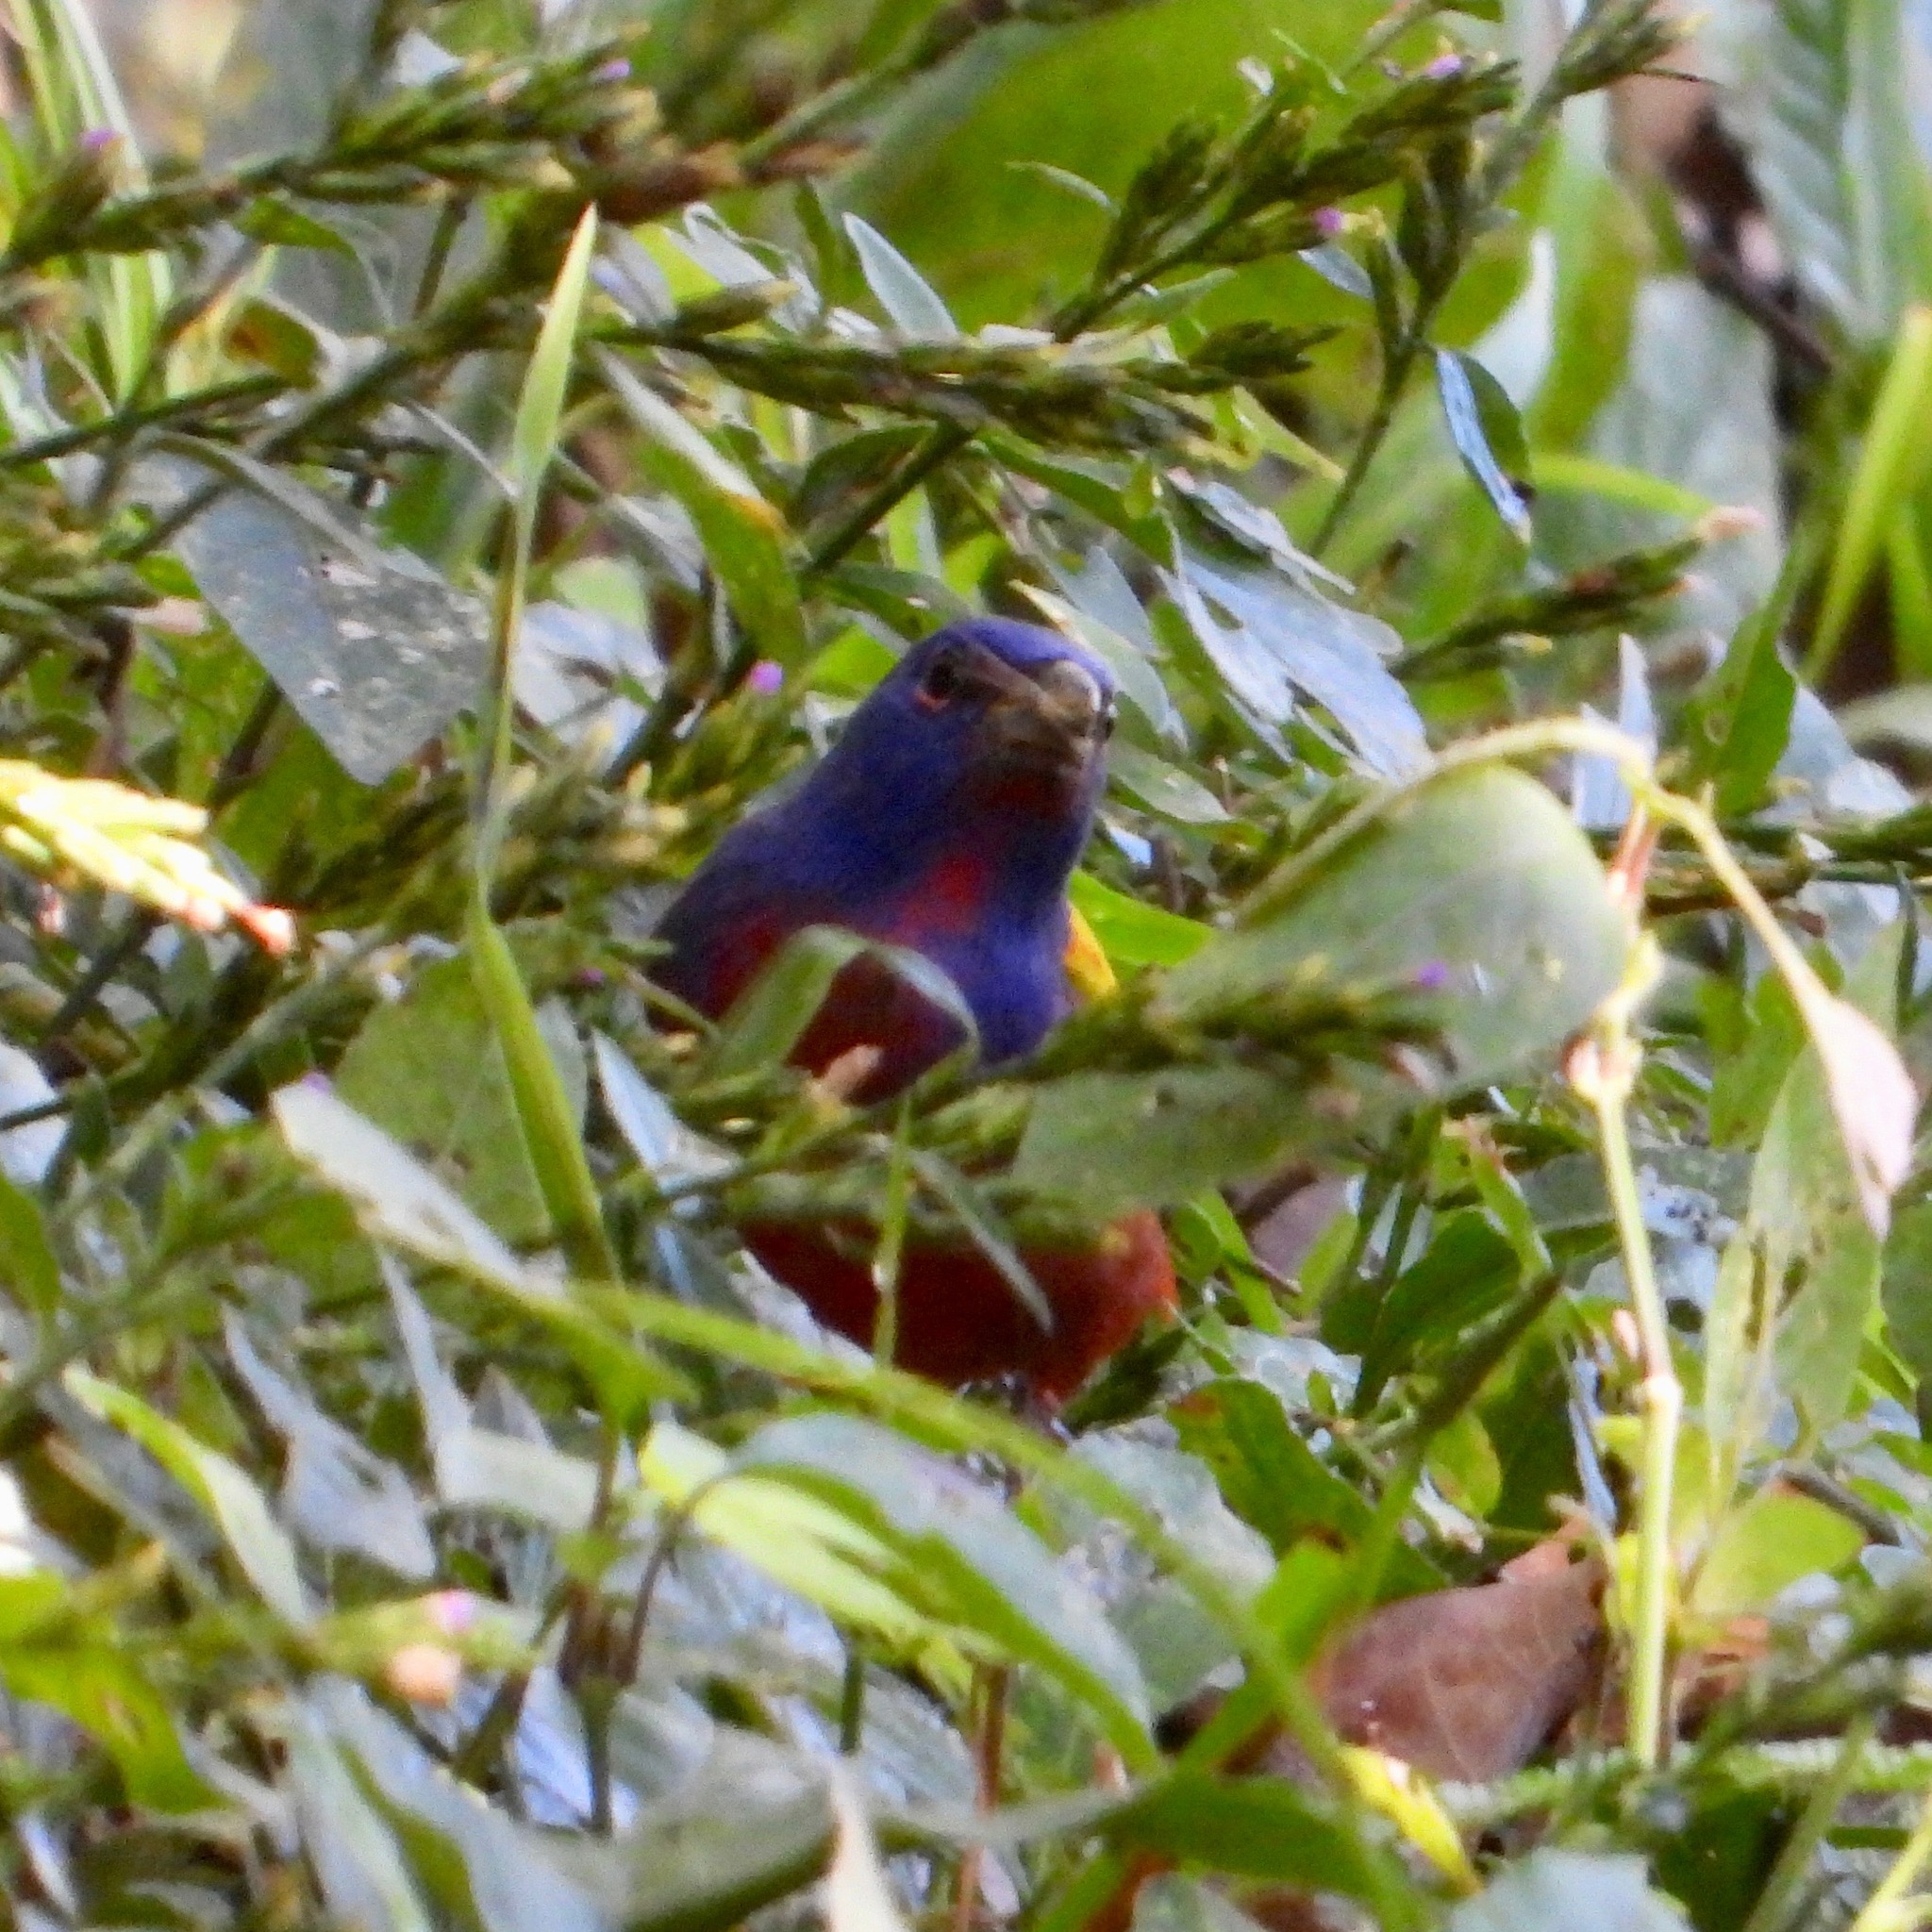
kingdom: Animalia
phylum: Chordata
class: Aves
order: Passeriformes
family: Cardinalidae
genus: Passerina
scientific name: Passerina ciris
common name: Painted bunting
